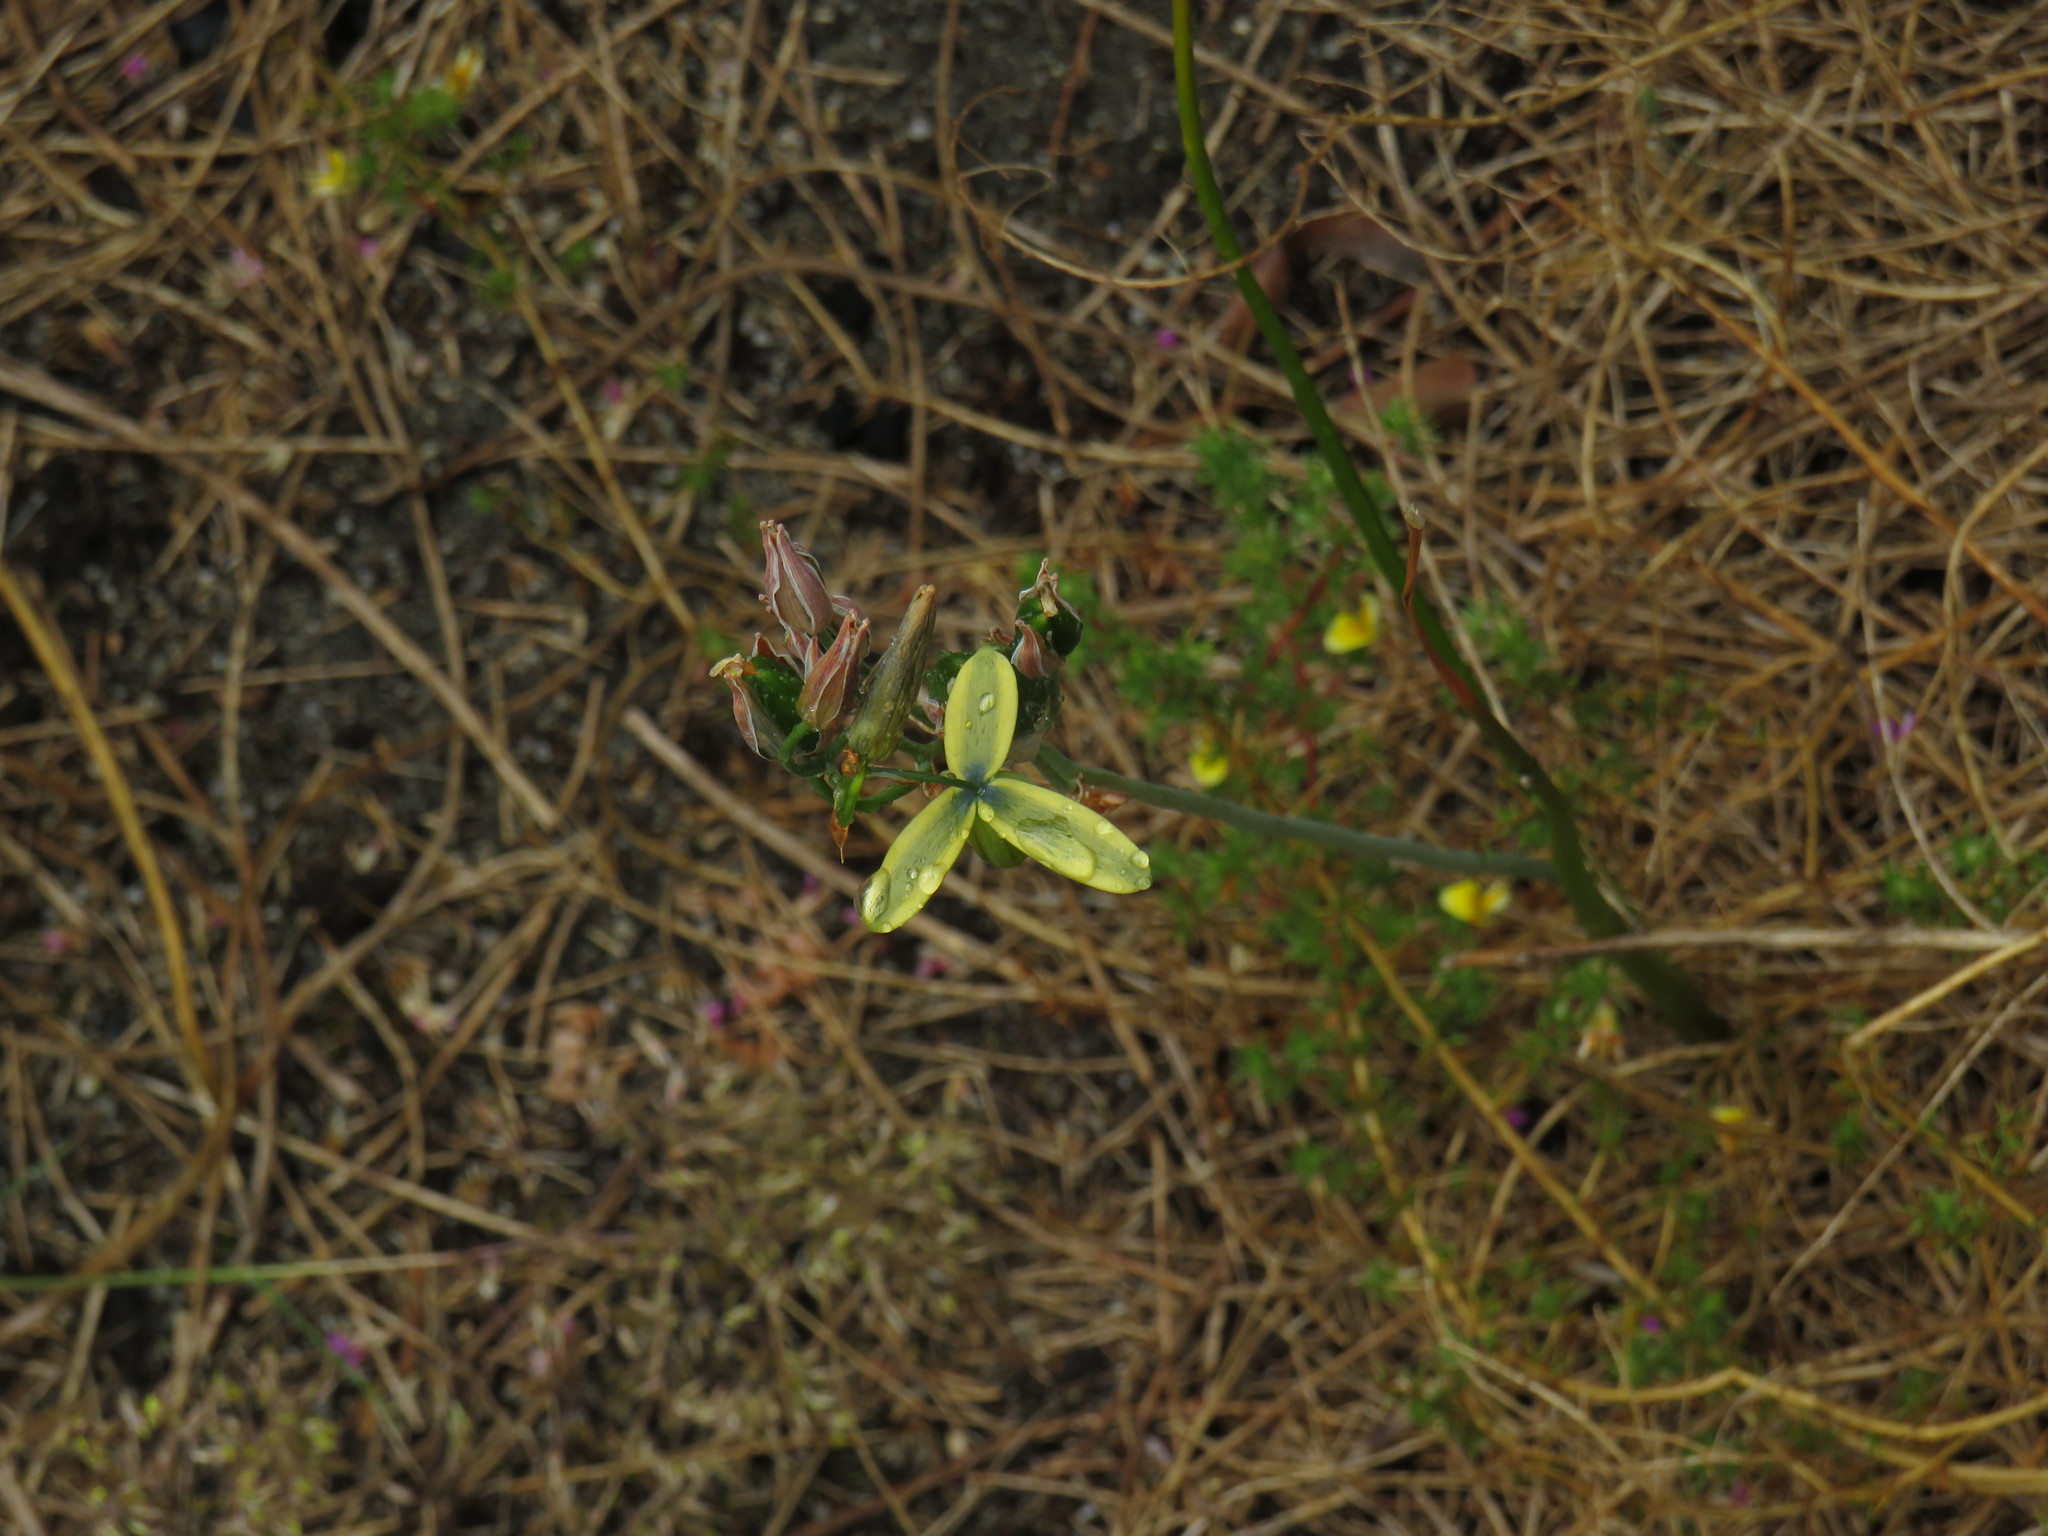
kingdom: Plantae
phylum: Tracheophyta
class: Liliopsida
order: Asparagales
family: Asparagaceae
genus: Albuca
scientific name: Albuca cooperi
